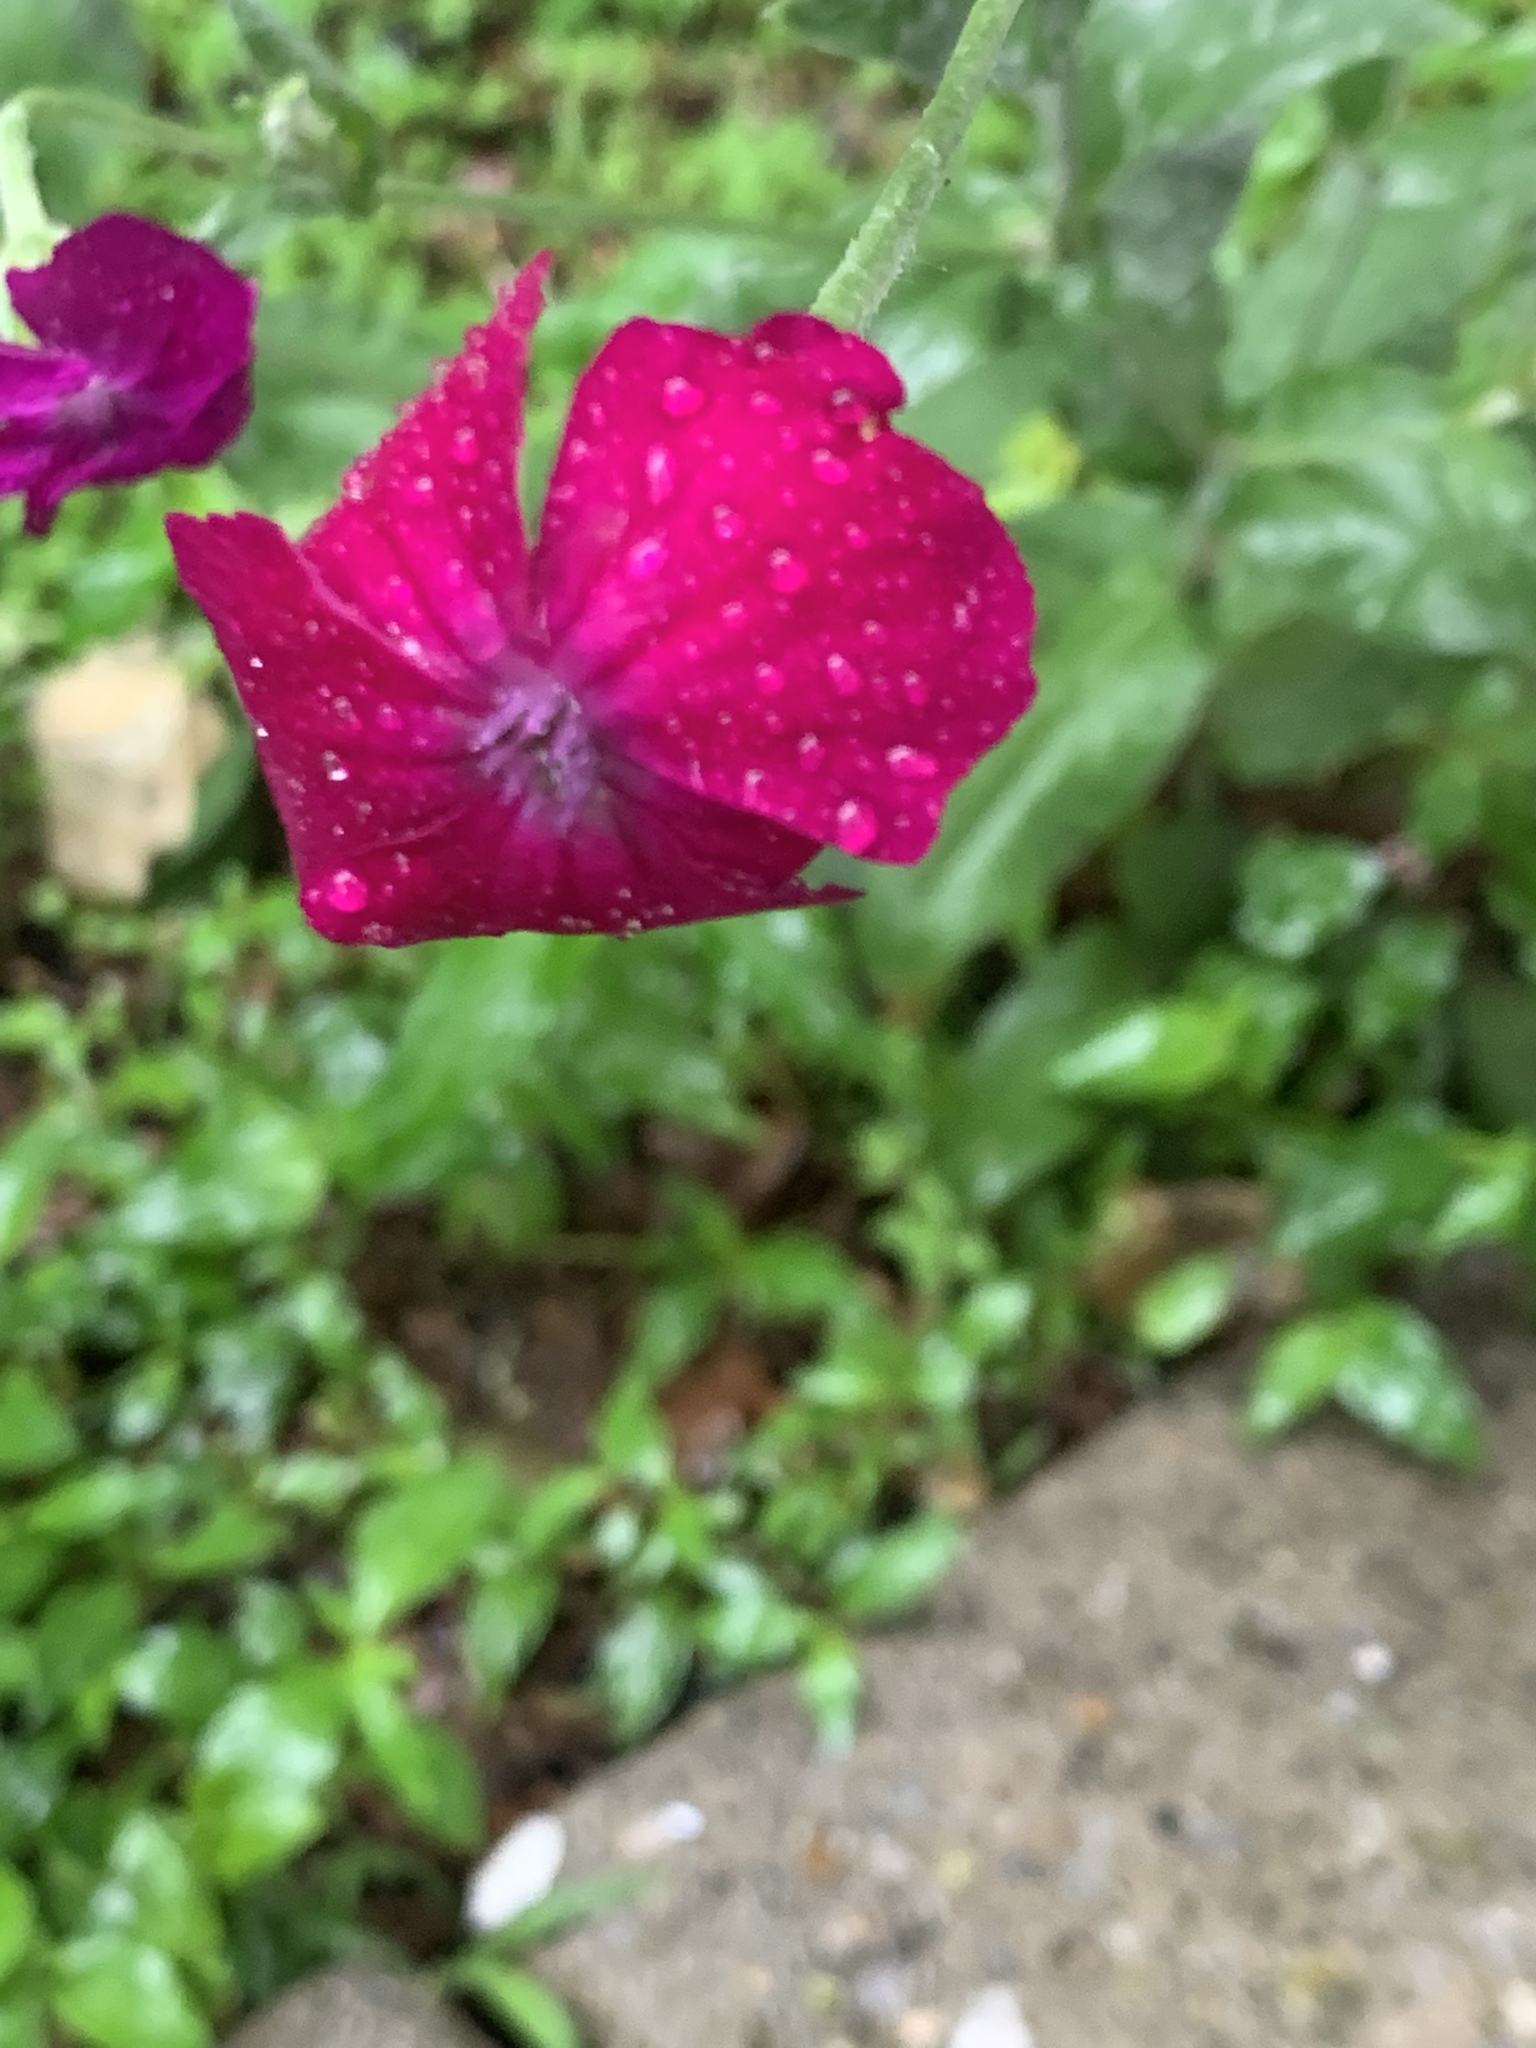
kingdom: Plantae
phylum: Tracheophyta
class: Magnoliopsida
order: Caryophyllales
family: Caryophyllaceae
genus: Silene
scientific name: Silene coronaria
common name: Rose campion
